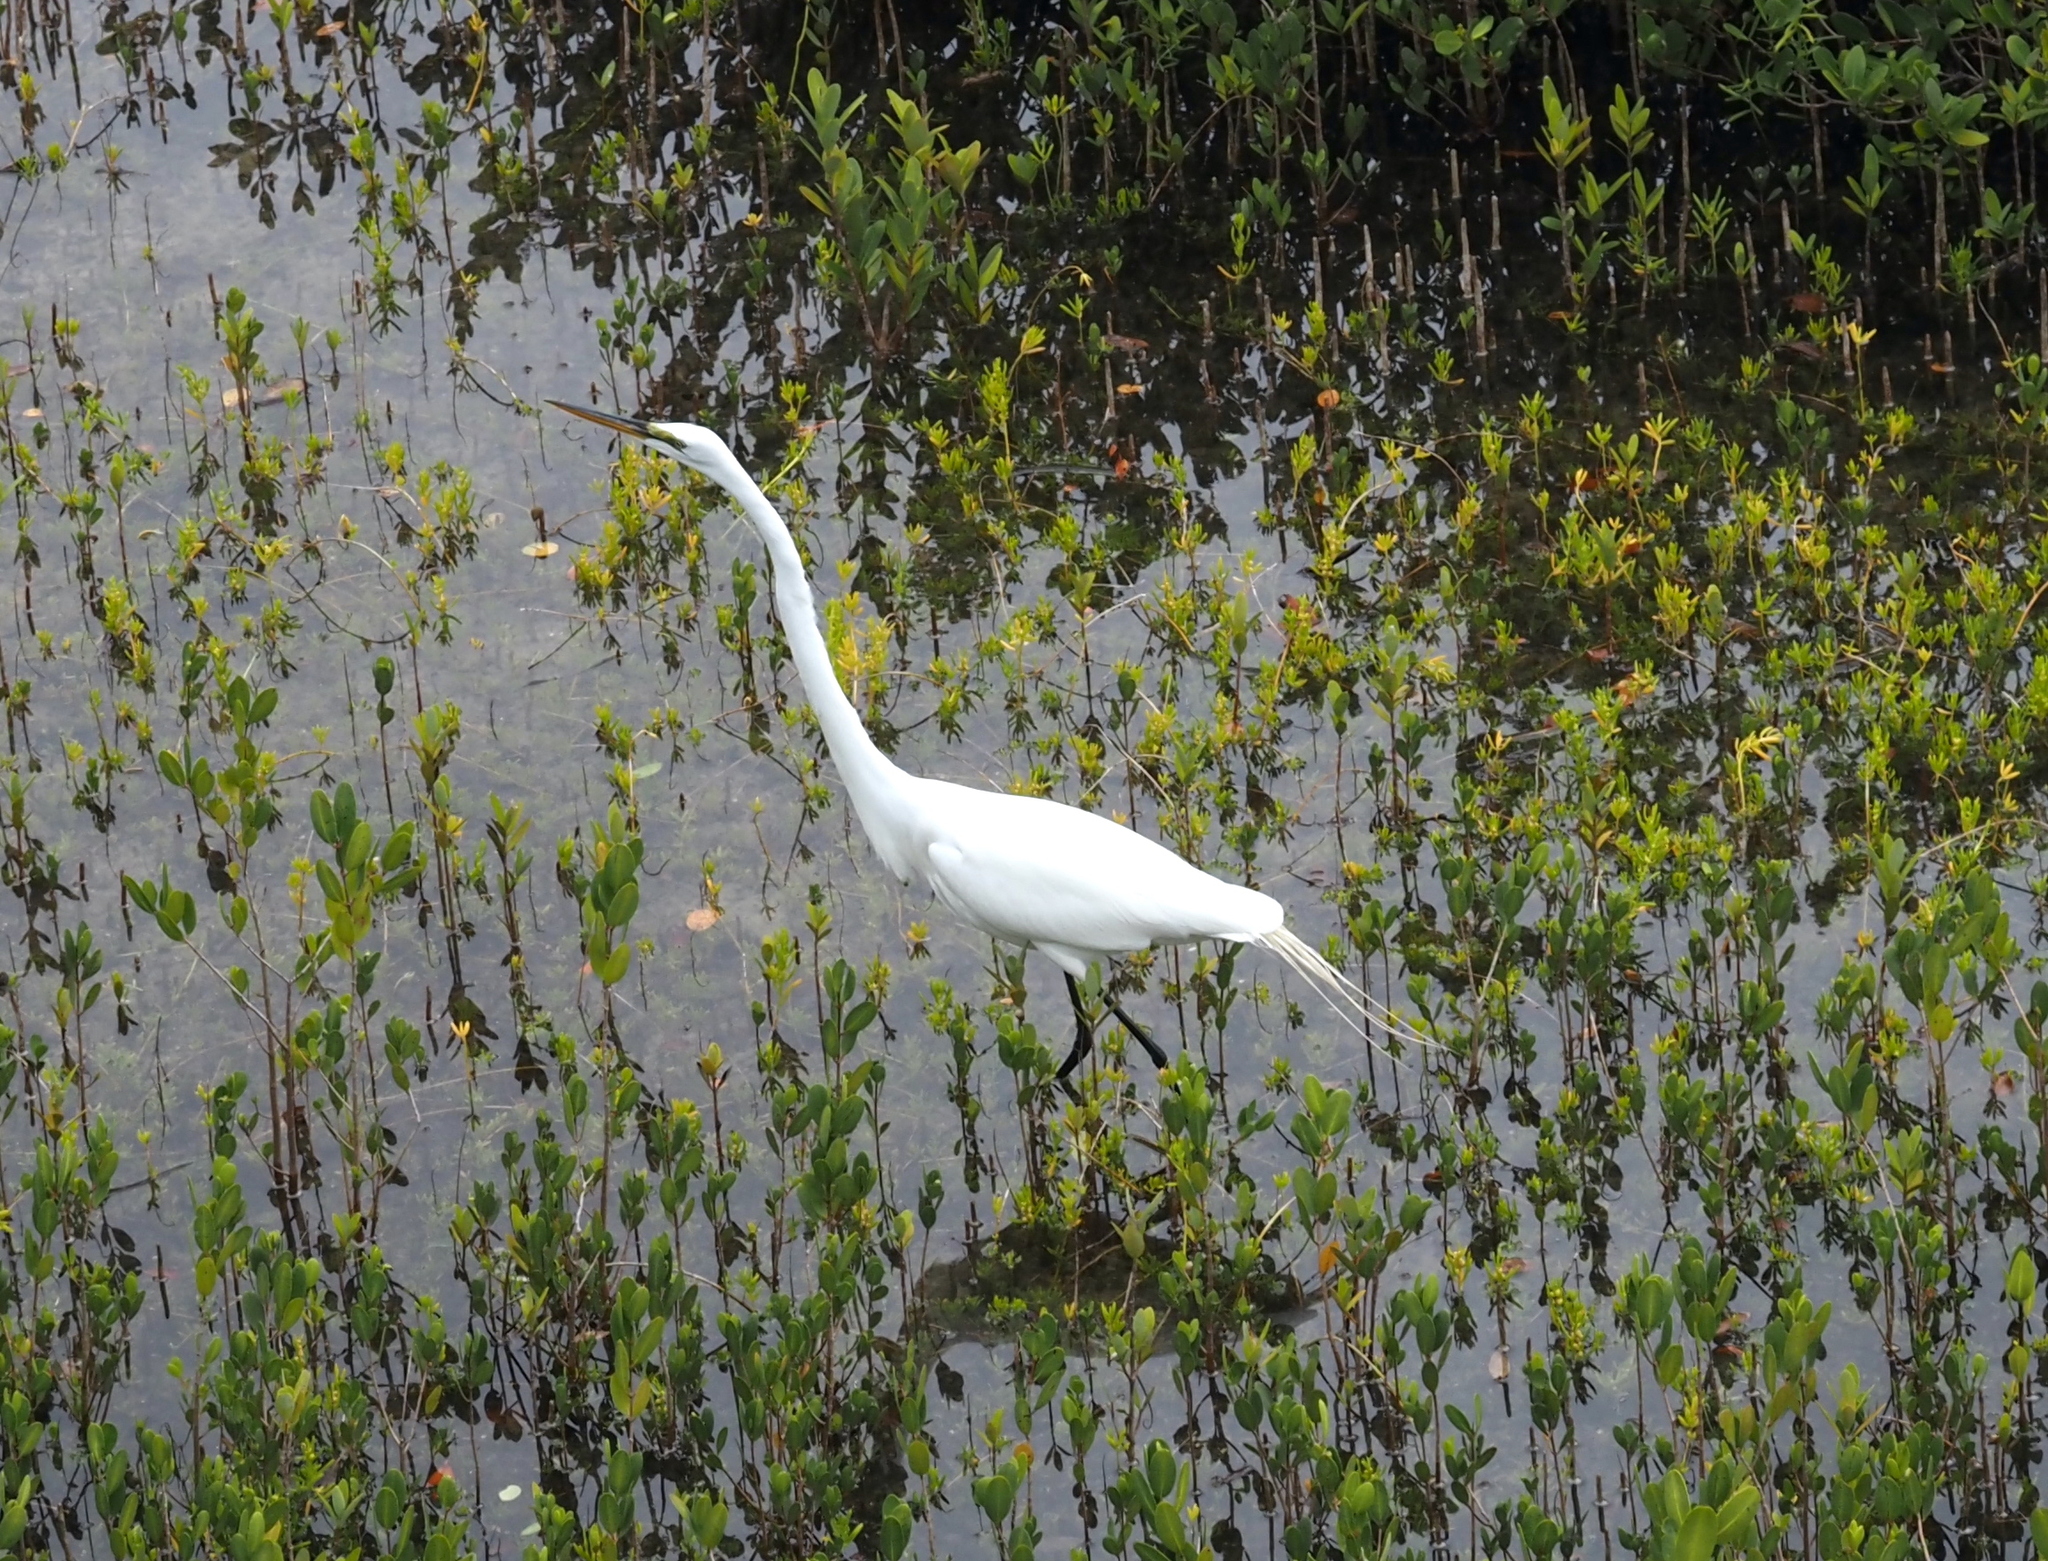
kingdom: Animalia
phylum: Chordata
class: Aves
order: Pelecaniformes
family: Ardeidae
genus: Ardea
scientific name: Ardea alba
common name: Great egret
